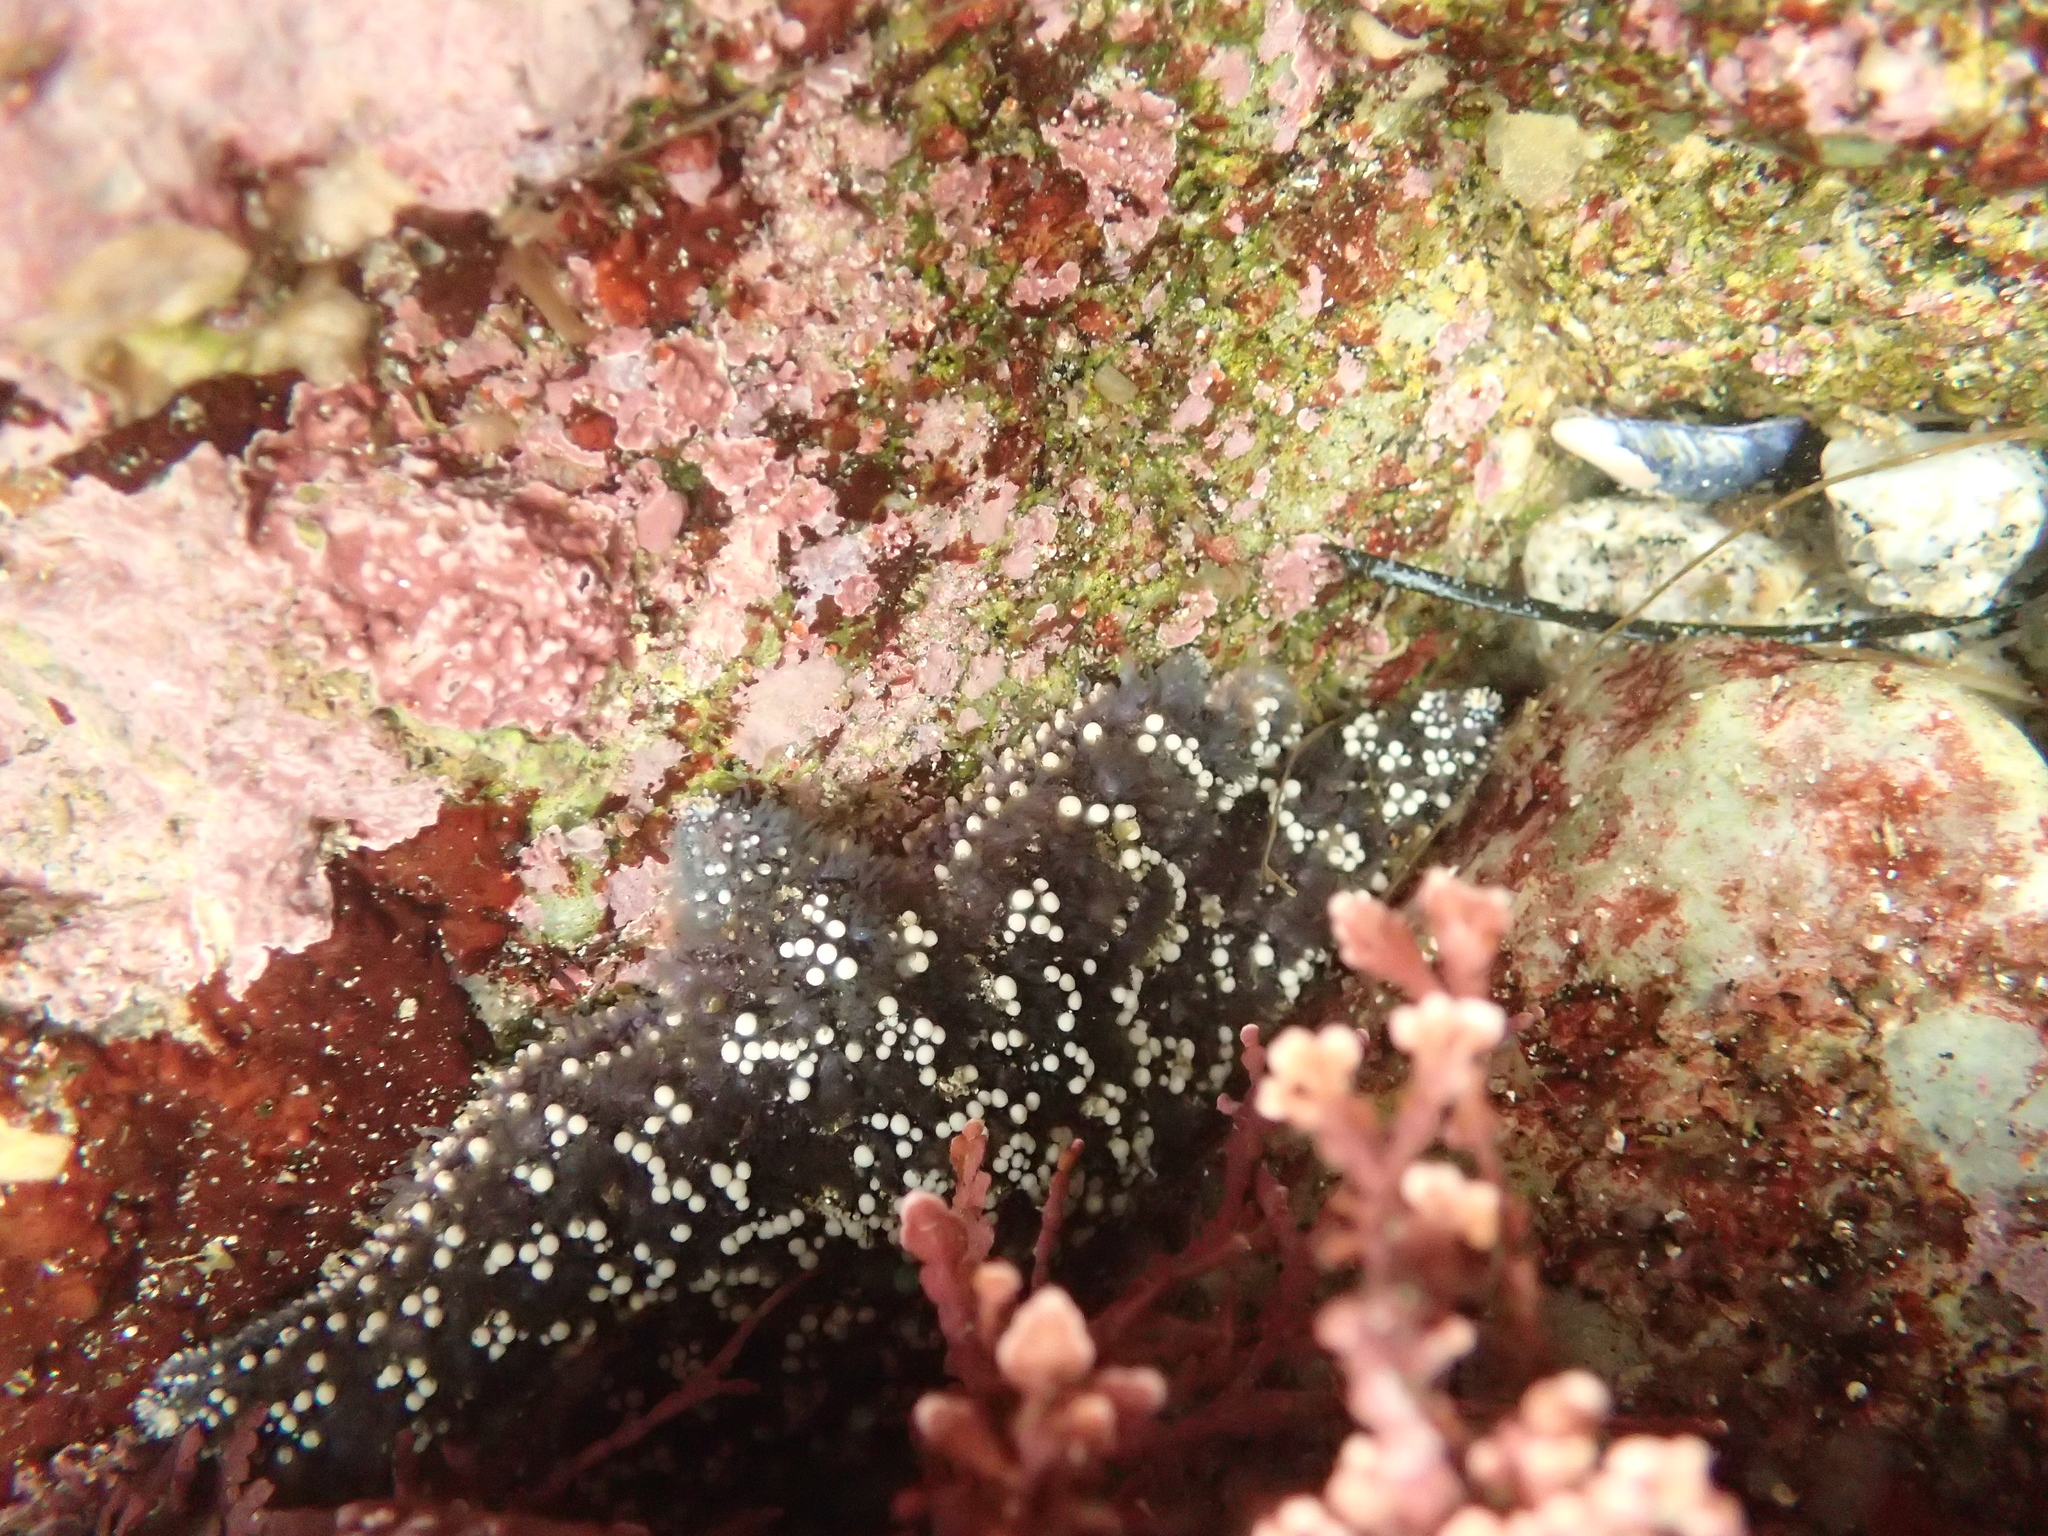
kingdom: Animalia
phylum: Echinodermata
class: Asteroidea
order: Forcipulatida
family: Asteriidae
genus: Pisaster
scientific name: Pisaster ochraceus
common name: Ochre stars
